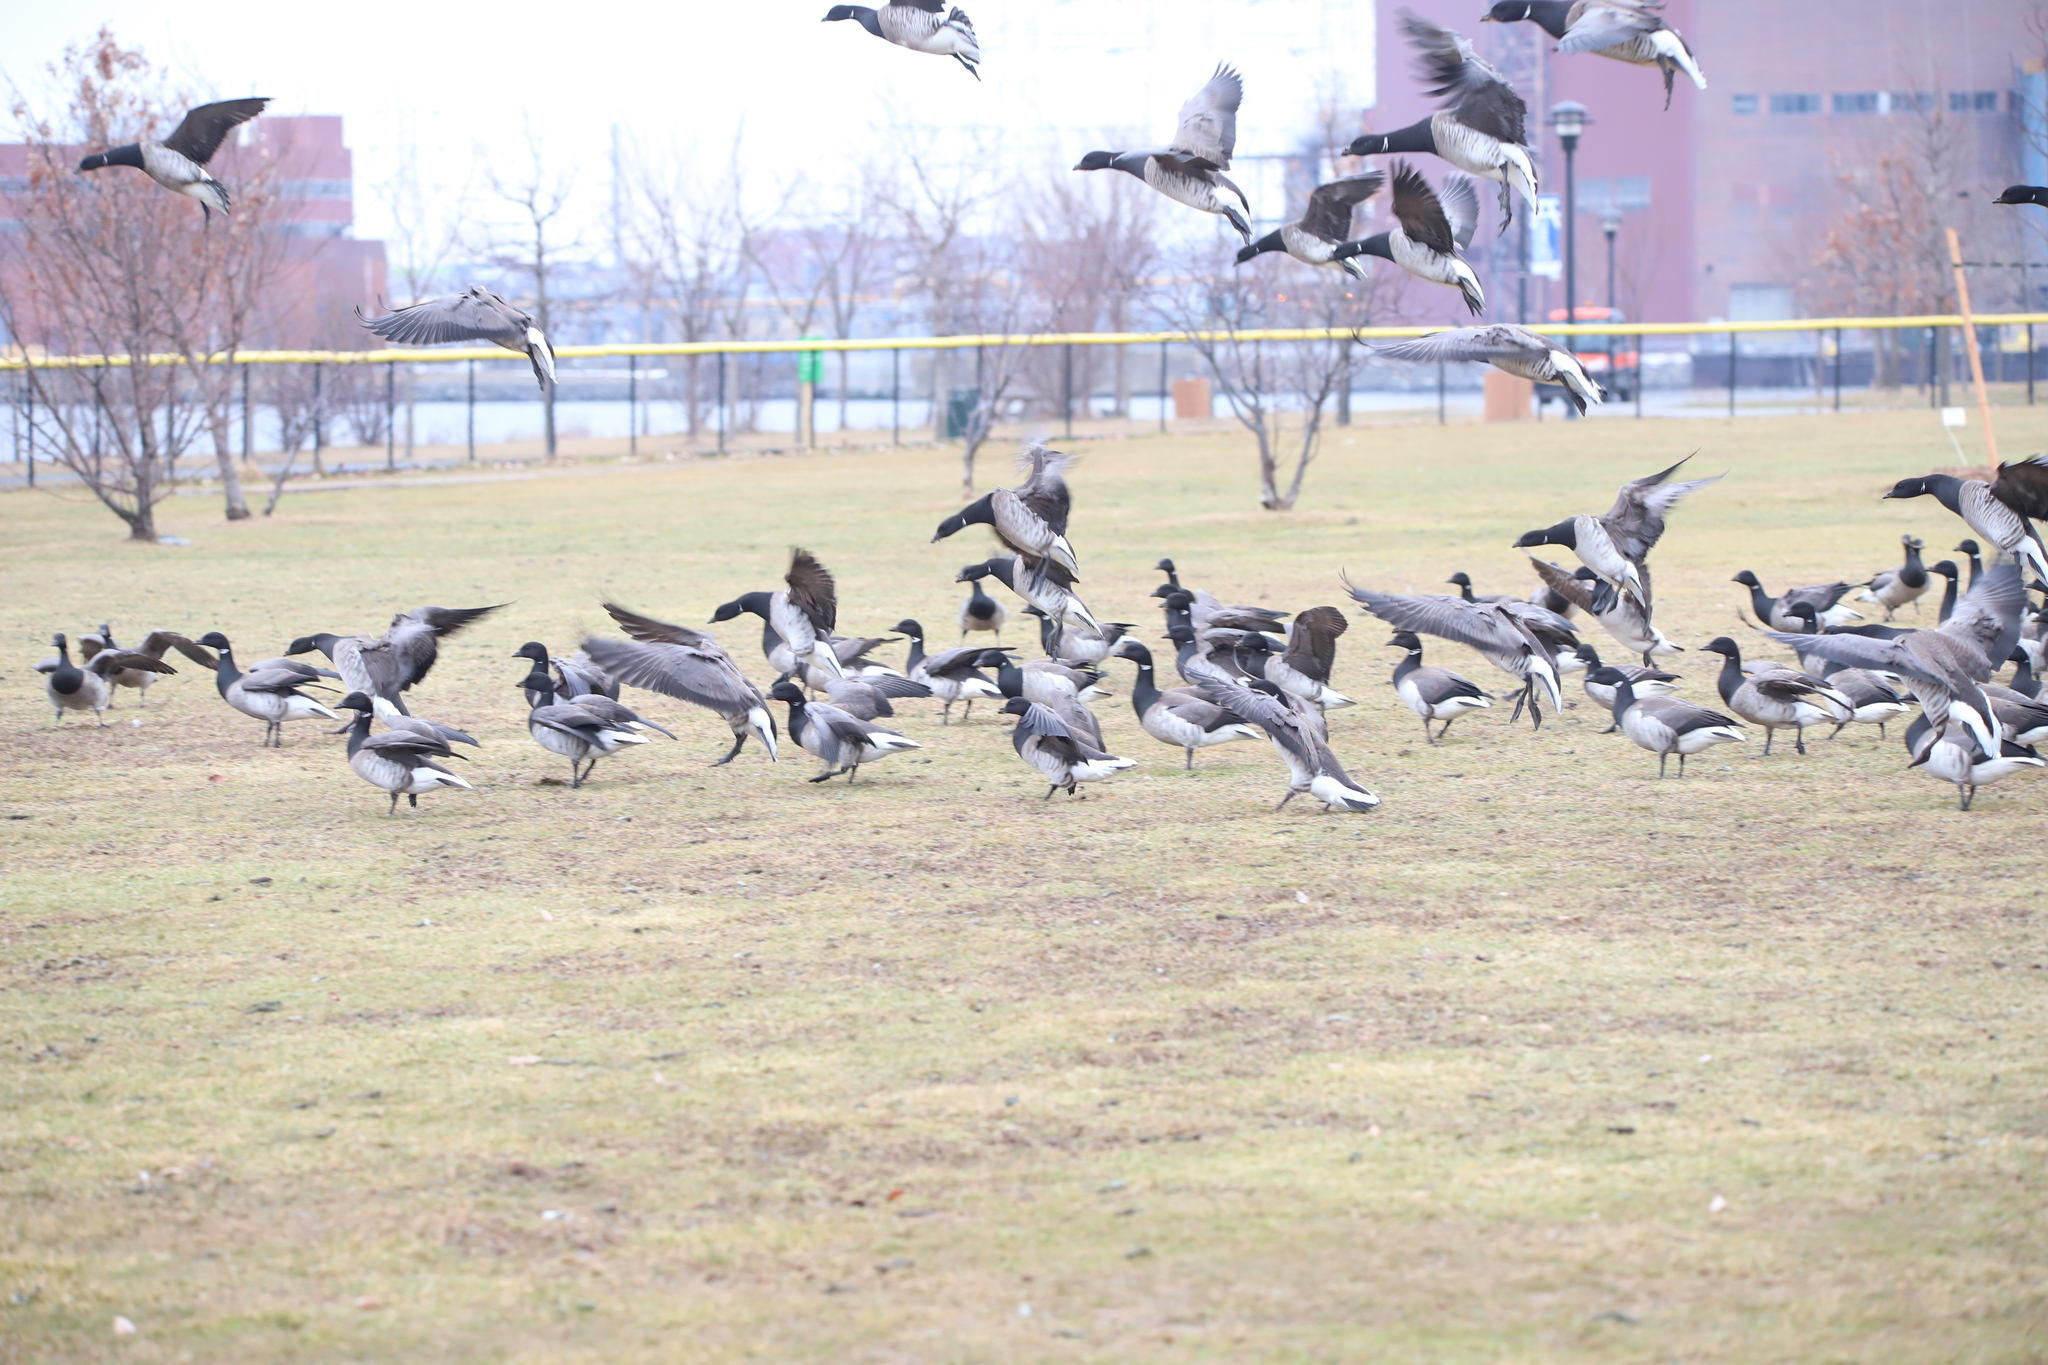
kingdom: Animalia
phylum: Chordata
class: Aves
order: Anseriformes
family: Anatidae
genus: Branta
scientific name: Branta bernicla
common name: Brant goose
